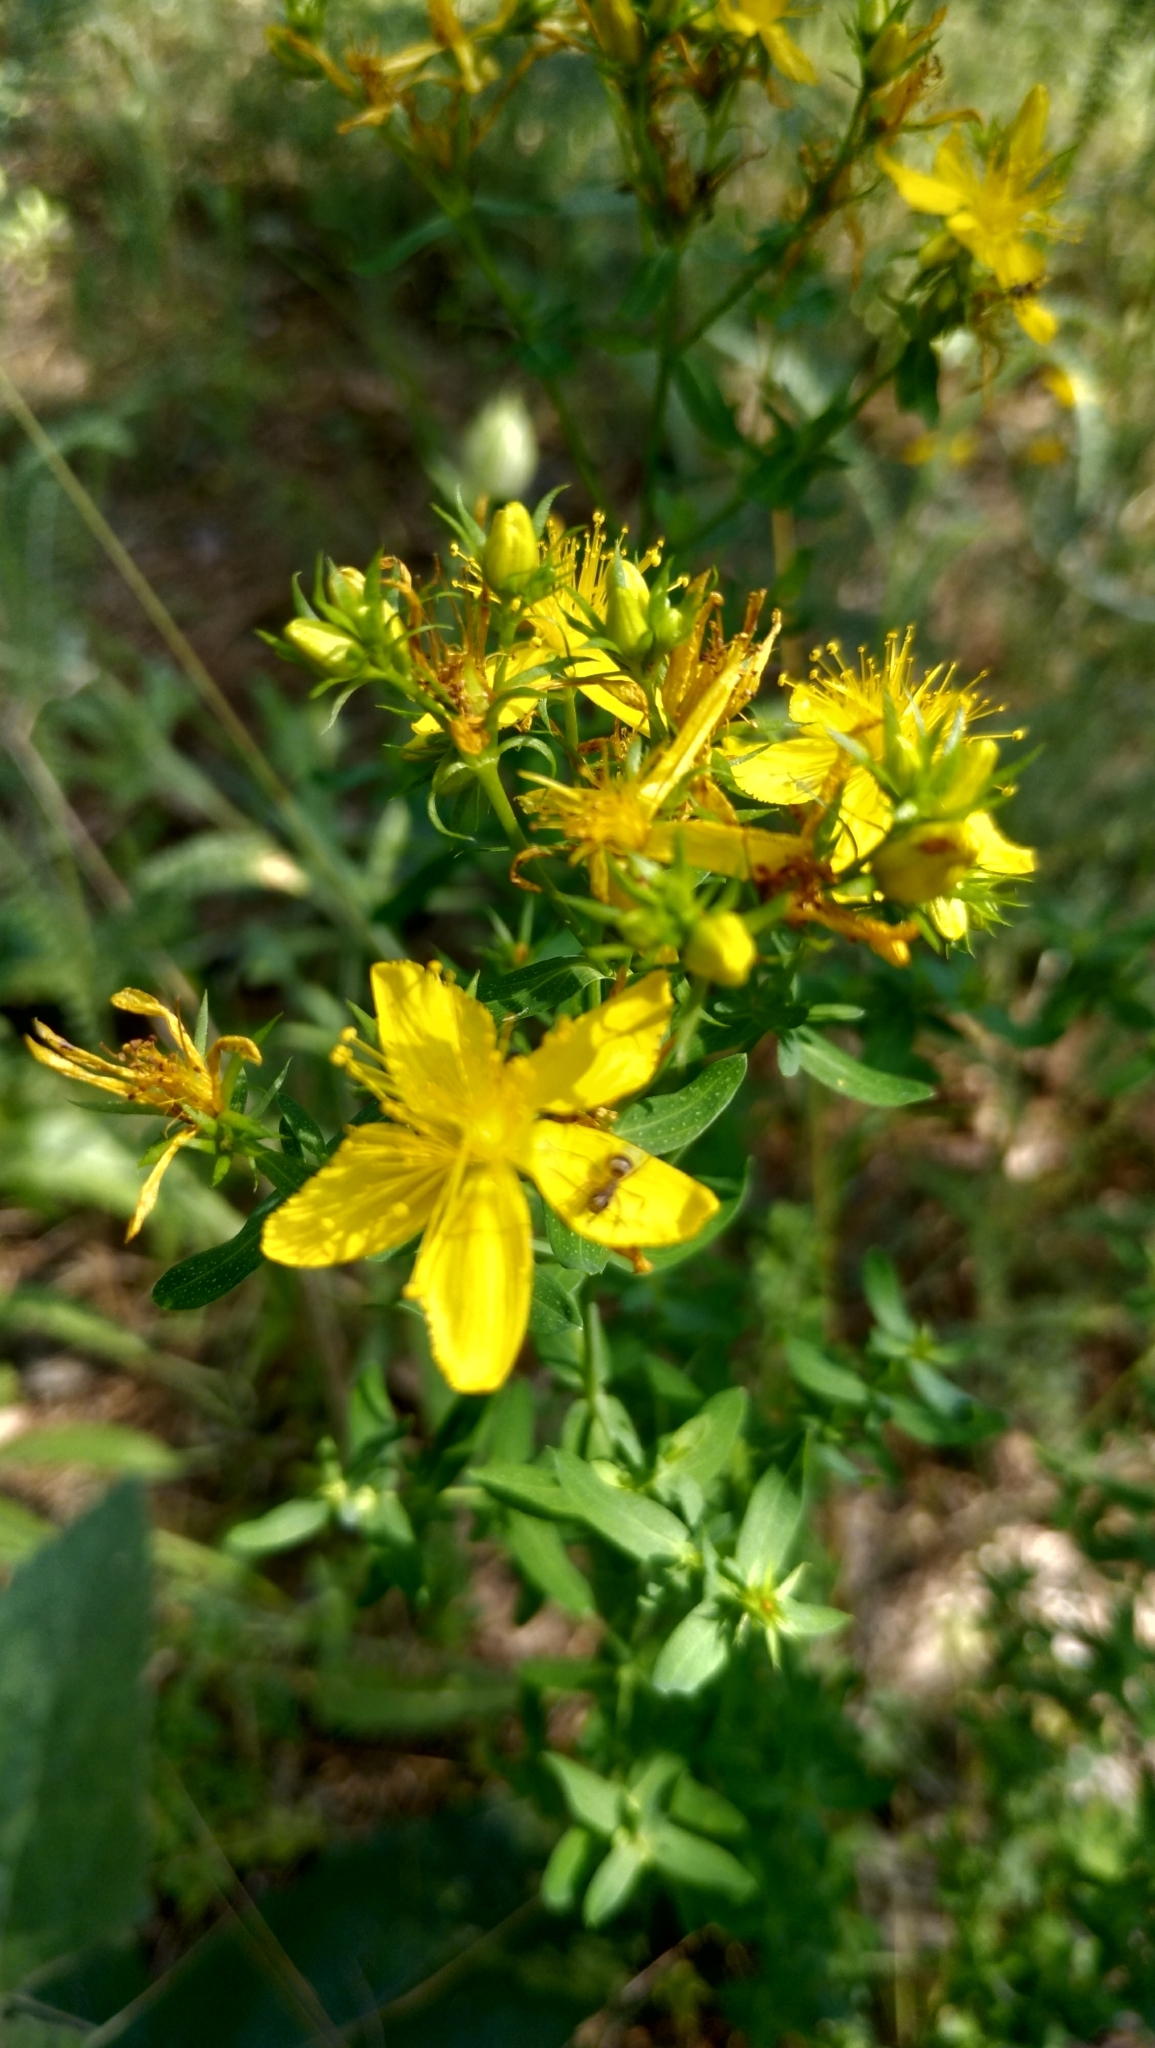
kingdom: Plantae
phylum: Tracheophyta
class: Magnoliopsida
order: Malpighiales
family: Hypericaceae
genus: Hypericum
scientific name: Hypericum perforatum
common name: Common st. johnswort
